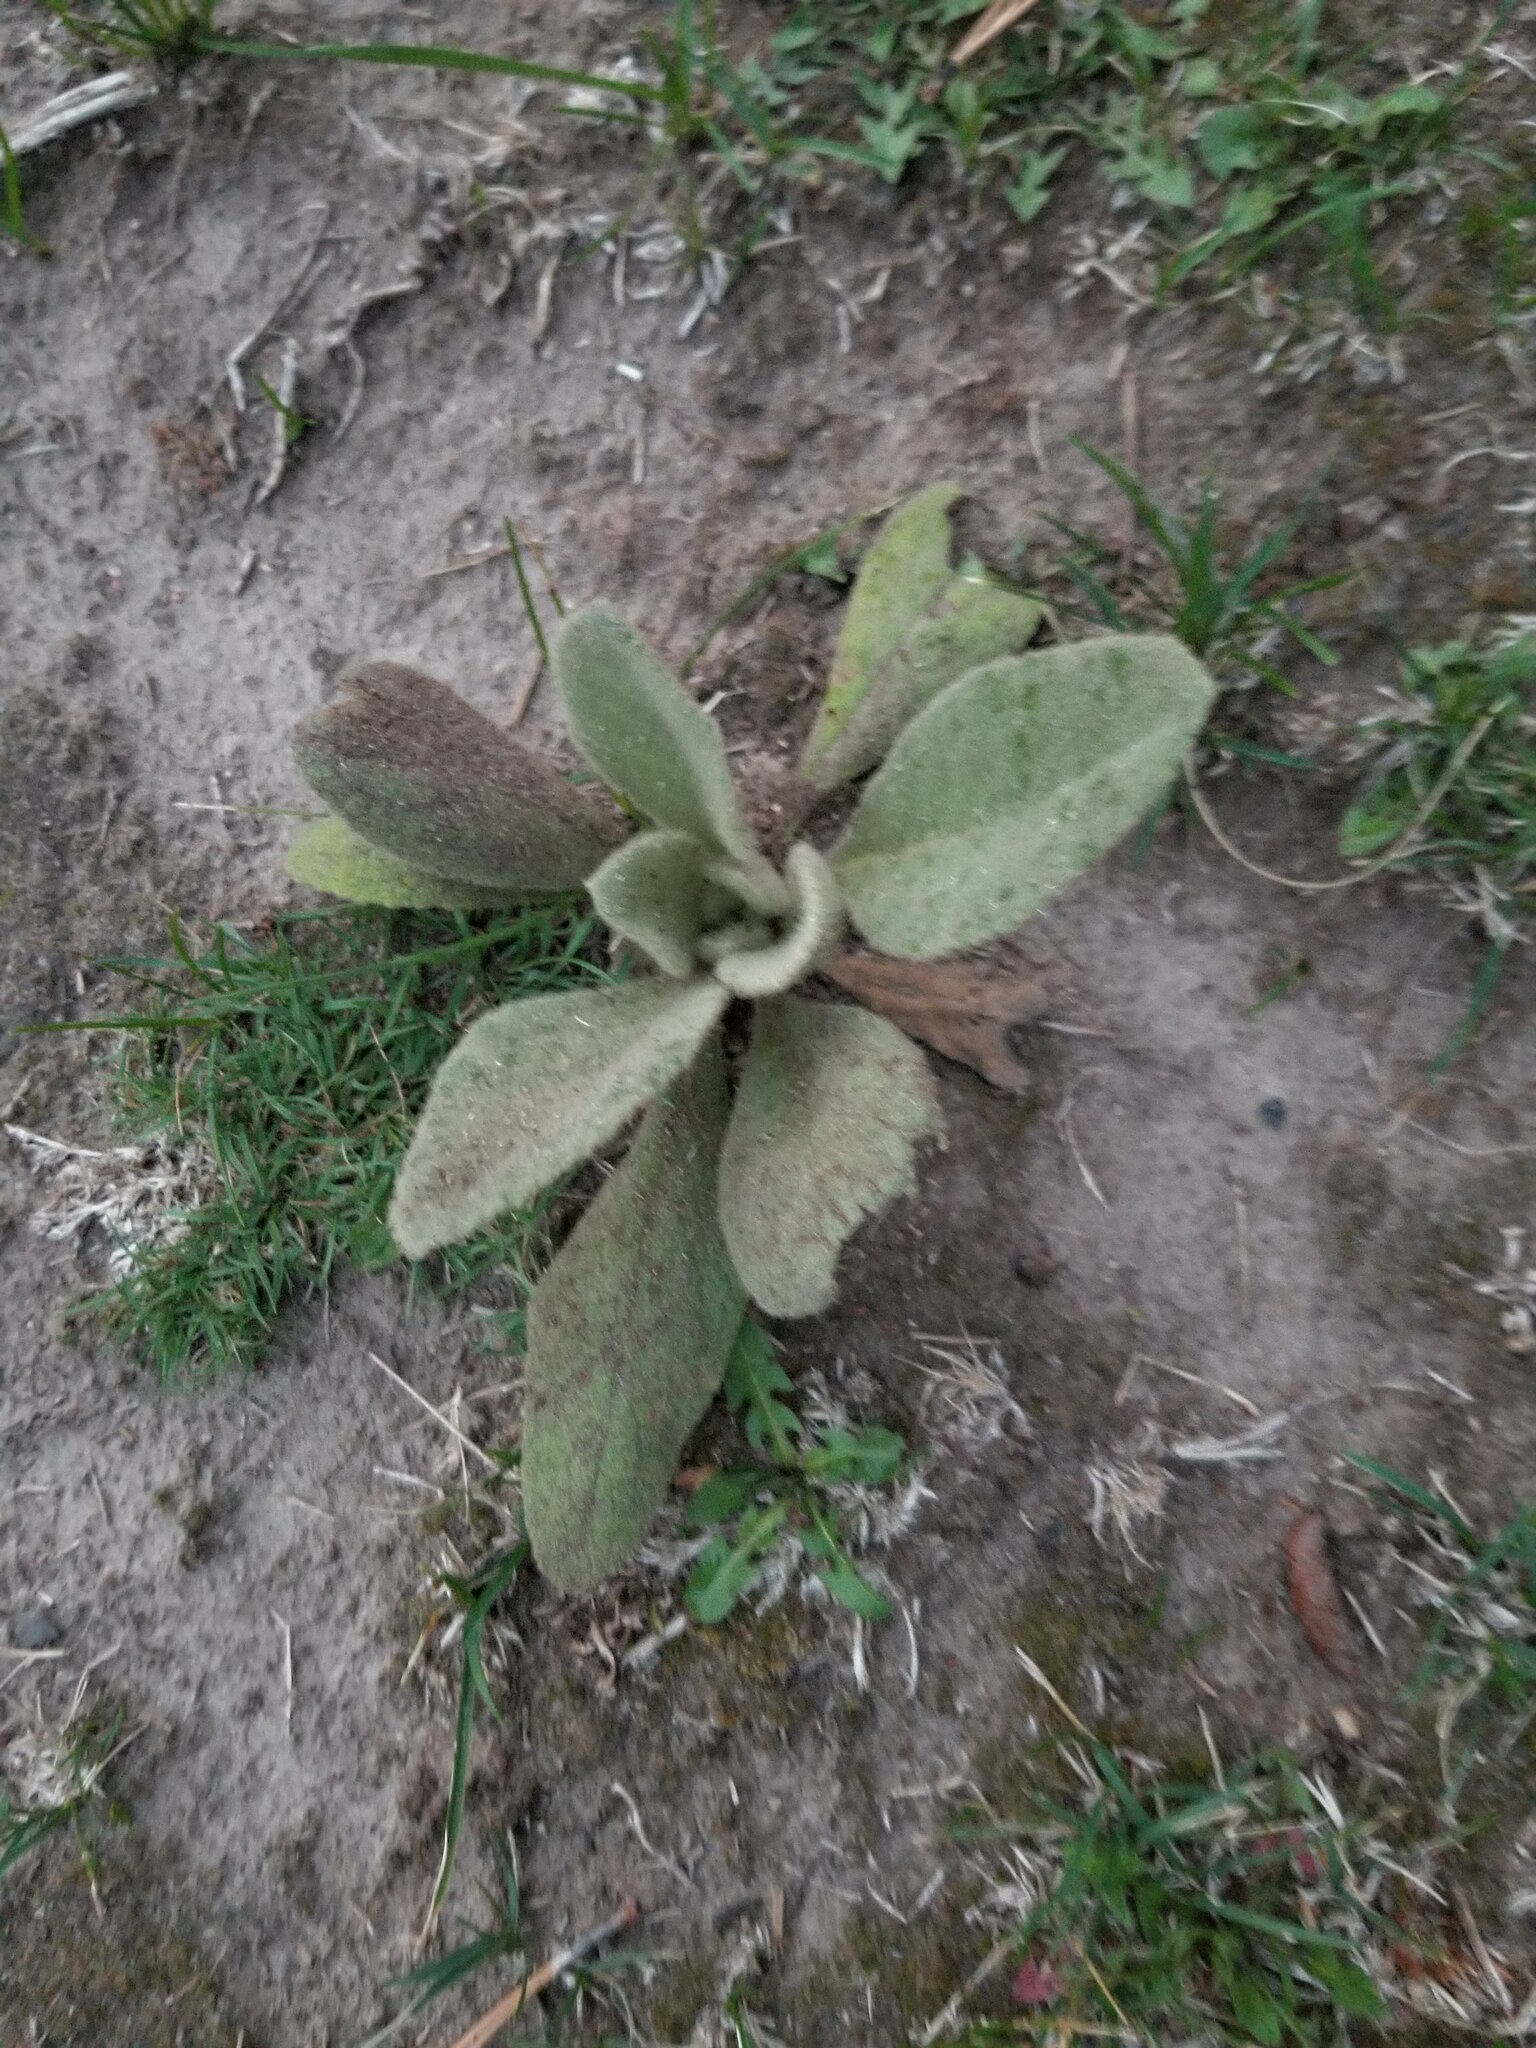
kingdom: Plantae
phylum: Tracheophyta
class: Magnoliopsida
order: Lamiales
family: Scrophulariaceae
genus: Verbascum
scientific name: Verbascum thapsus
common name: Common mullein
